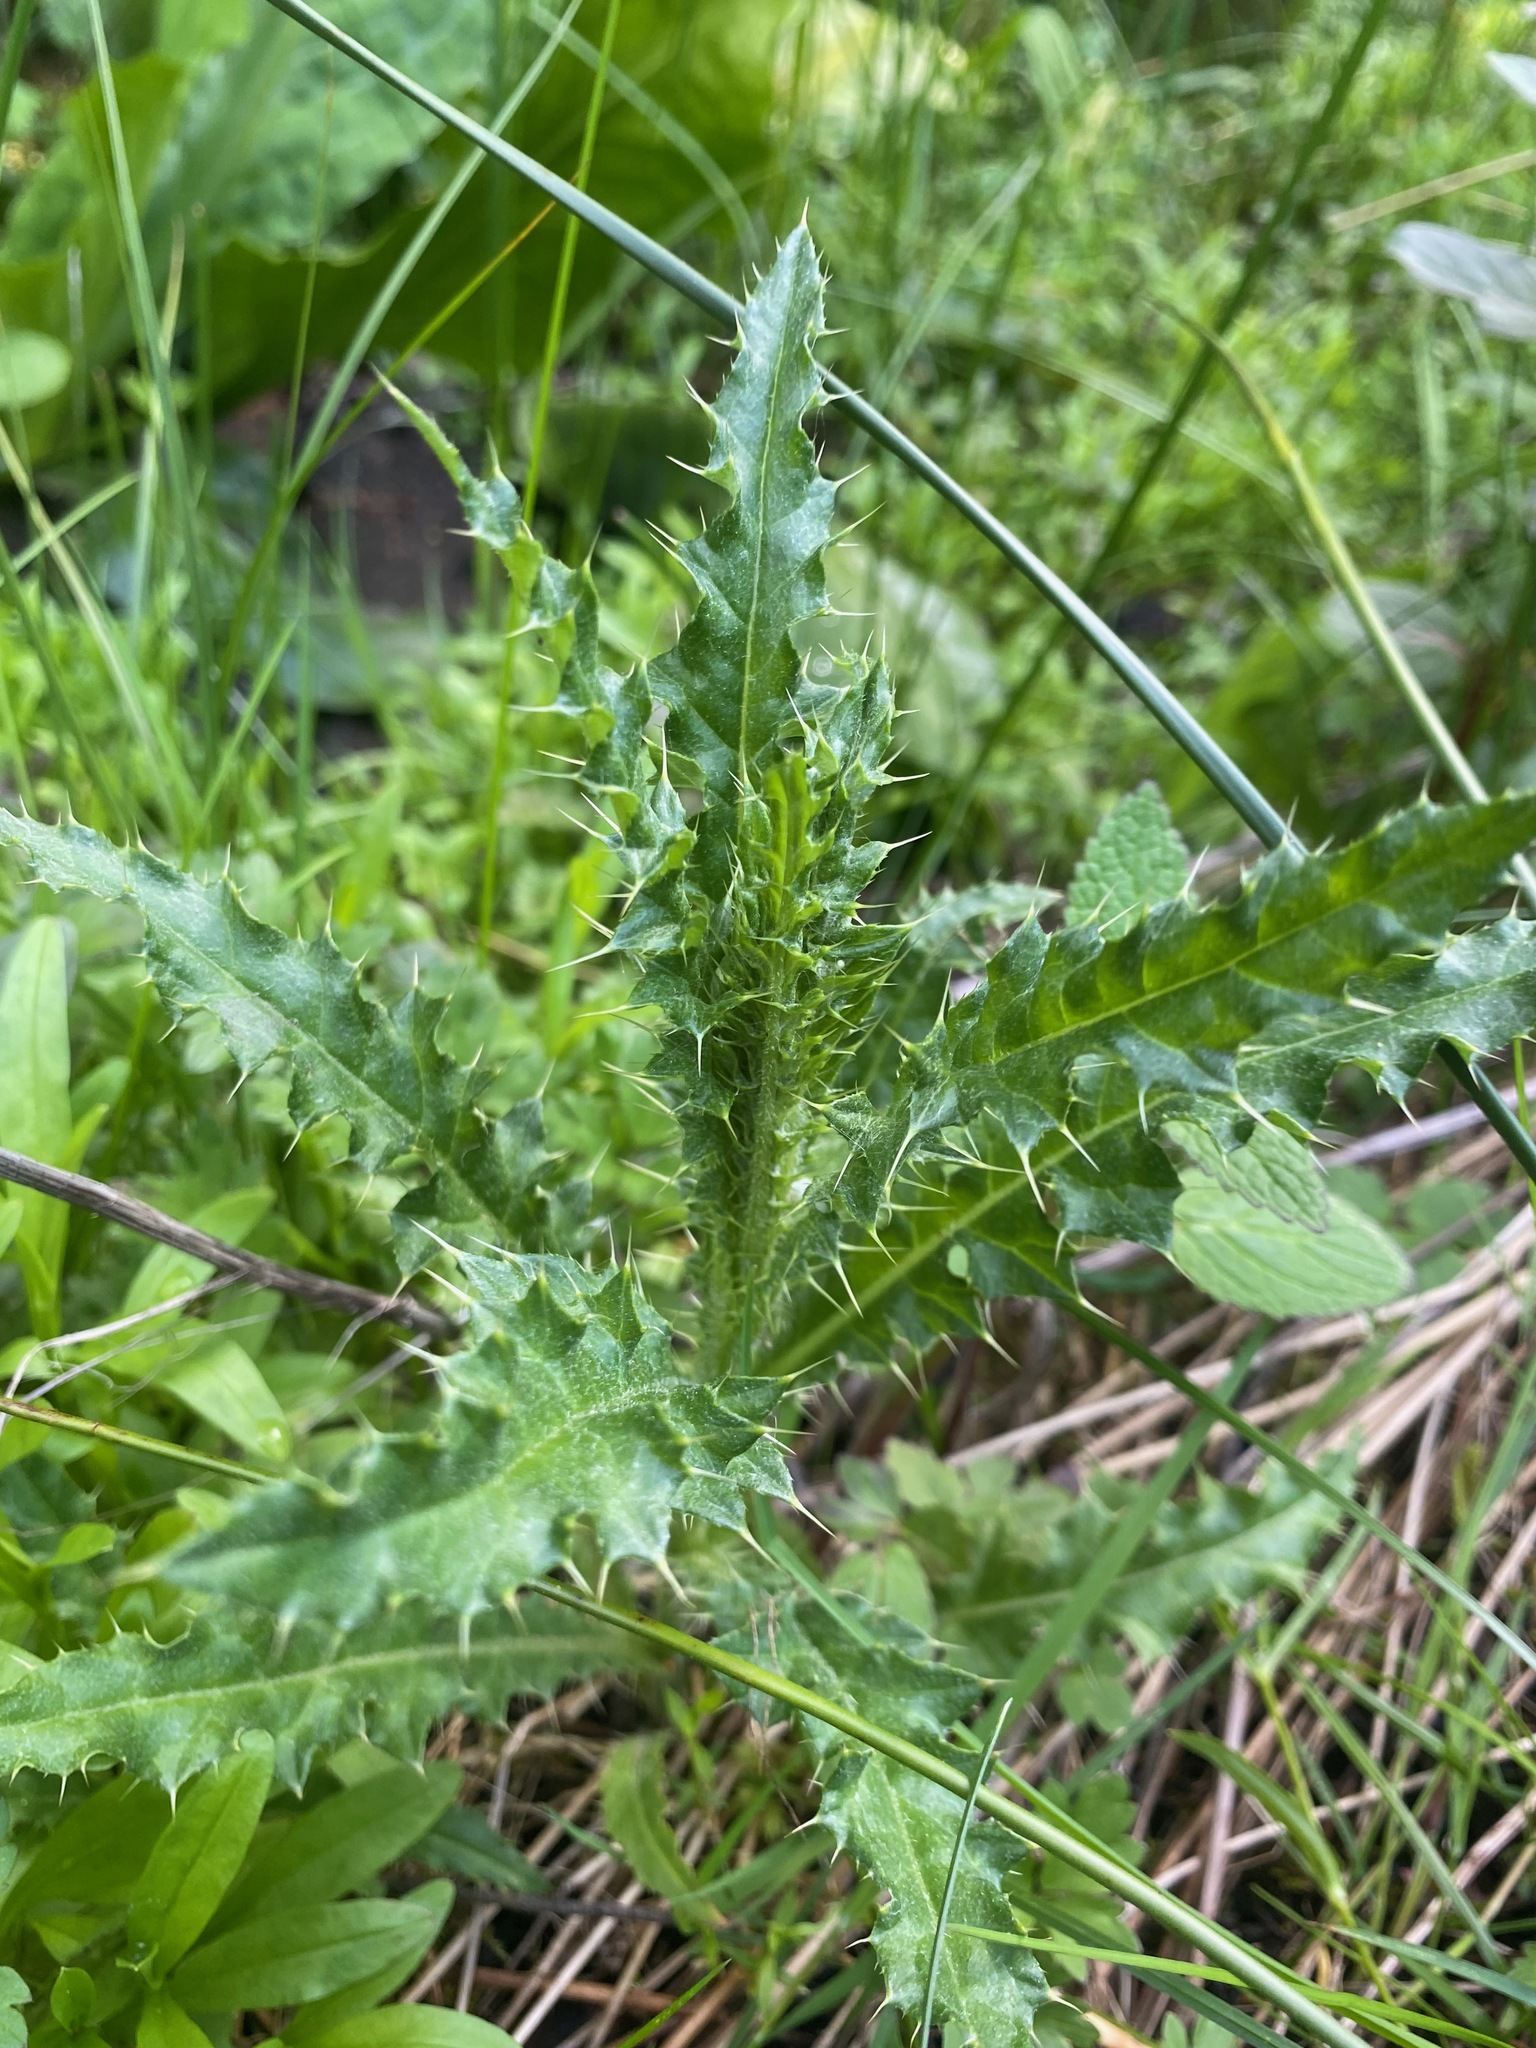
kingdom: Plantae
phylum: Tracheophyta
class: Magnoliopsida
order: Asterales
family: Asteraceae
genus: Cirsium
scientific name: Cirsium arvense
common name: Creeping thistle
